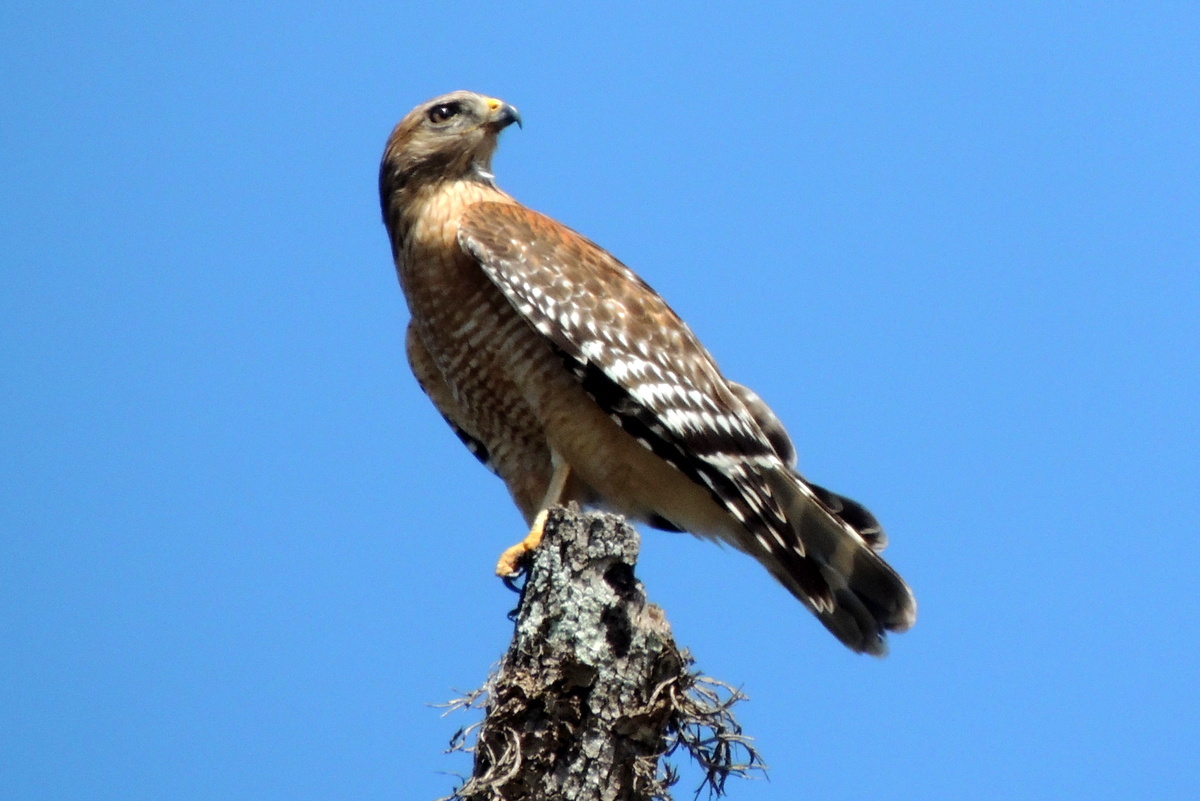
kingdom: Animalia
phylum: Chordata
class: Aves
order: Accipitriformes
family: Accipitridae
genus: Buteo
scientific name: Buteo lineatus
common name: Red-shouldered hawk
